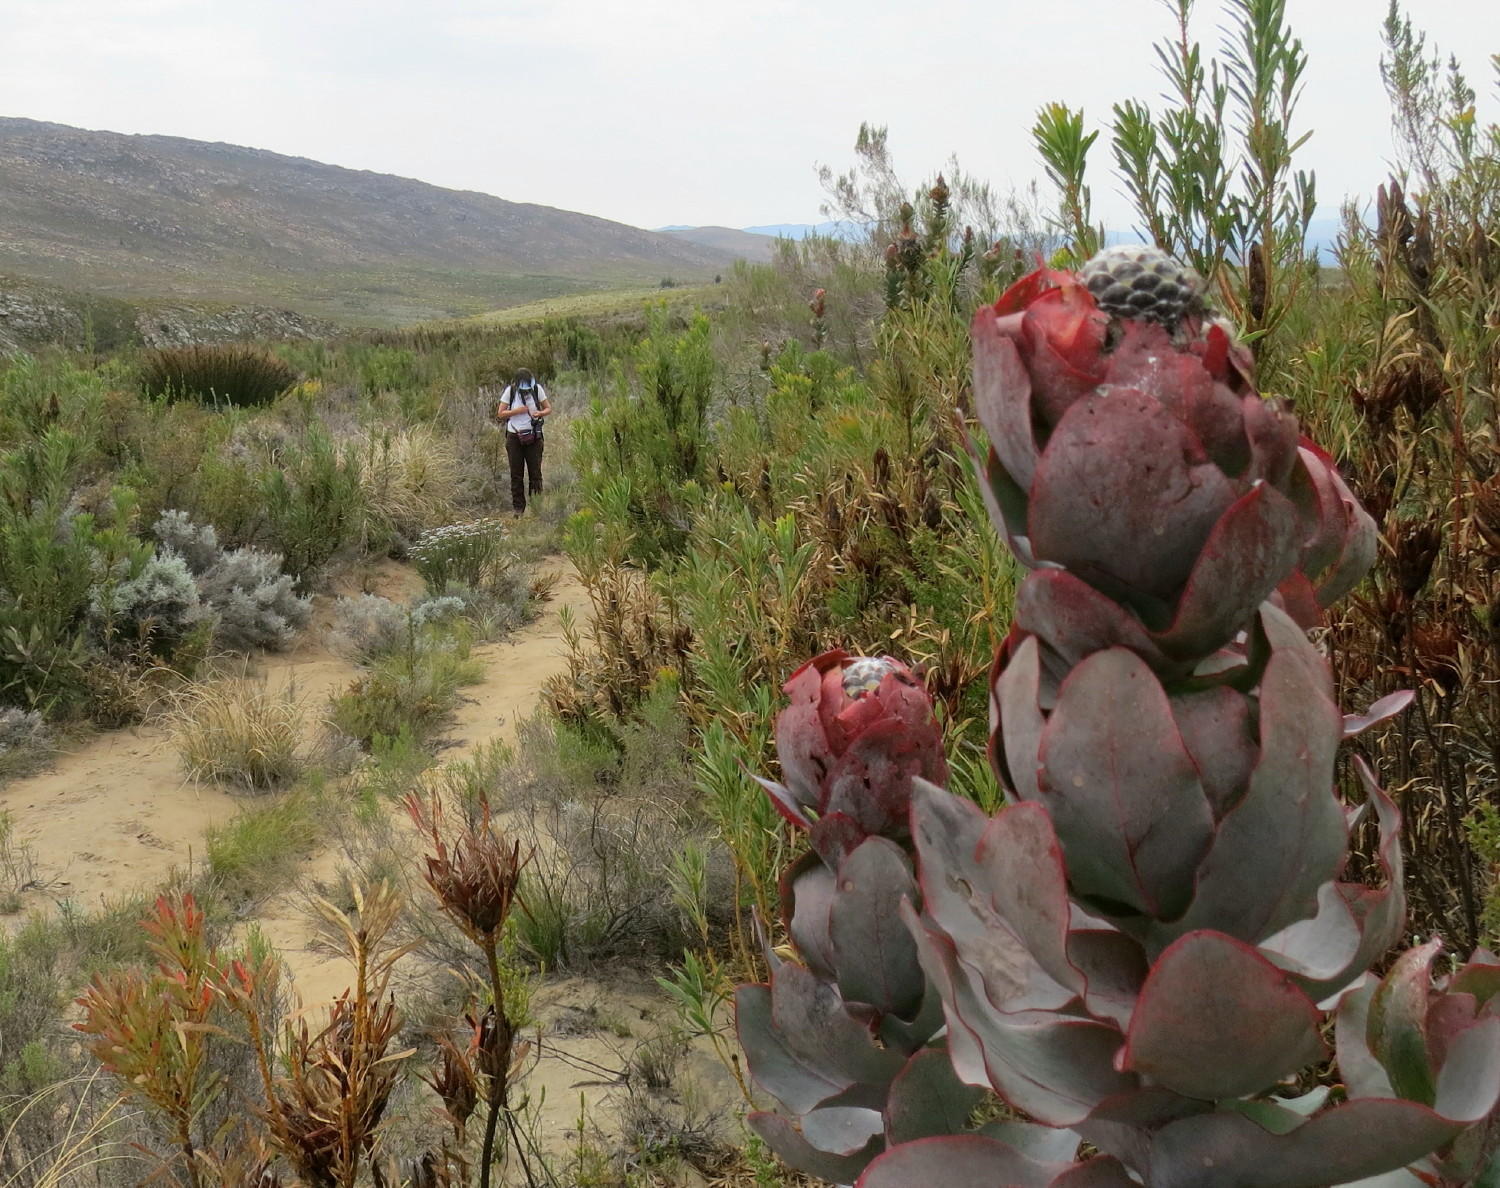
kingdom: Plantae
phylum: Tracheophyta
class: Magnoliopsida
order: Proteales
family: Proteaceae
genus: Protea
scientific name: Protea eximia
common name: Broad-leaved sugarbush
